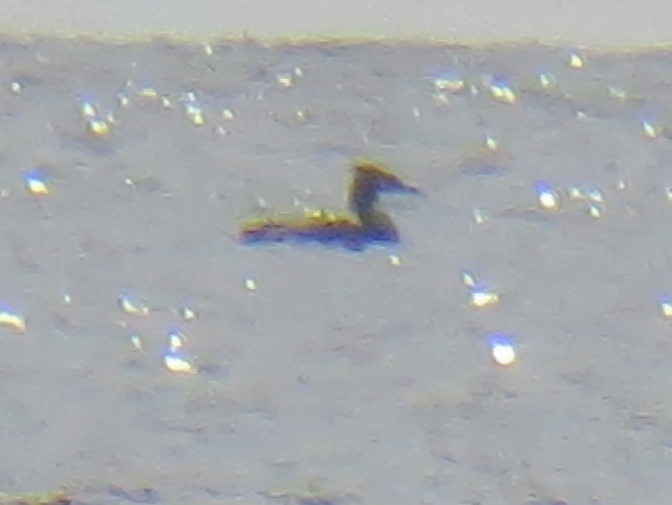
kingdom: Animalia
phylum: Chordata
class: Aves
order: Podicipediformes
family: Podicipedidae
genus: Podiceps
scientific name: Podiceps cristatus
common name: Great crested grebe
